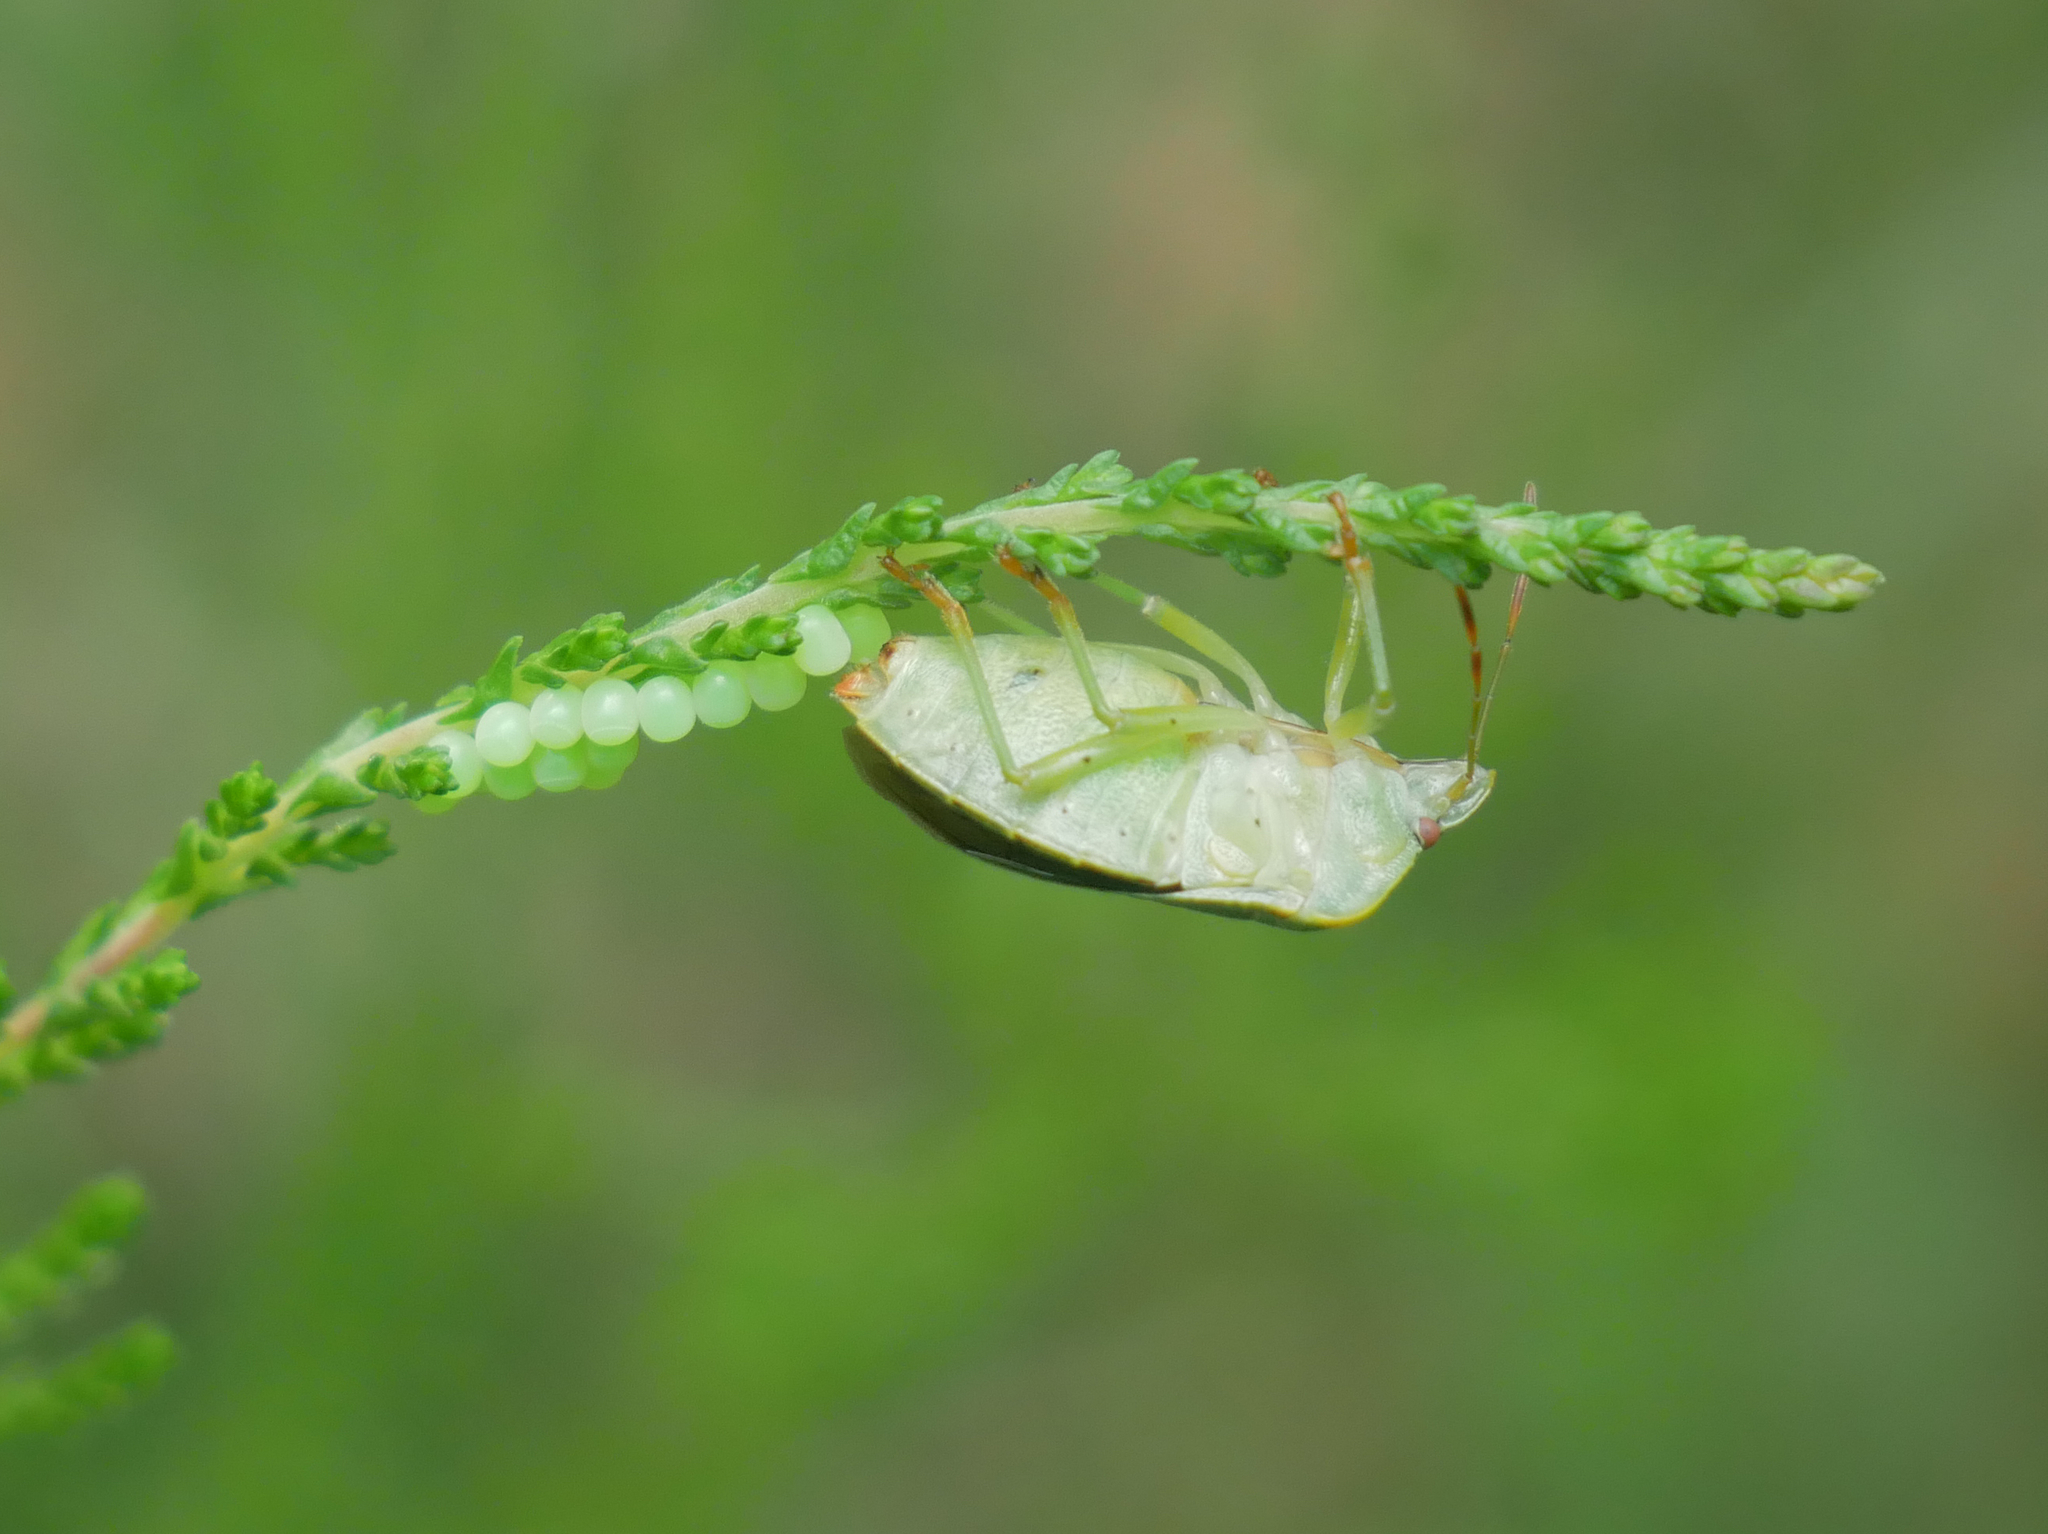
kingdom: Animalia
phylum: Arthropoda
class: Insecta
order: Hemiptera
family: Pentatomidae
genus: Palomena
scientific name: Palomena prasina
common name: Green shieldbug
